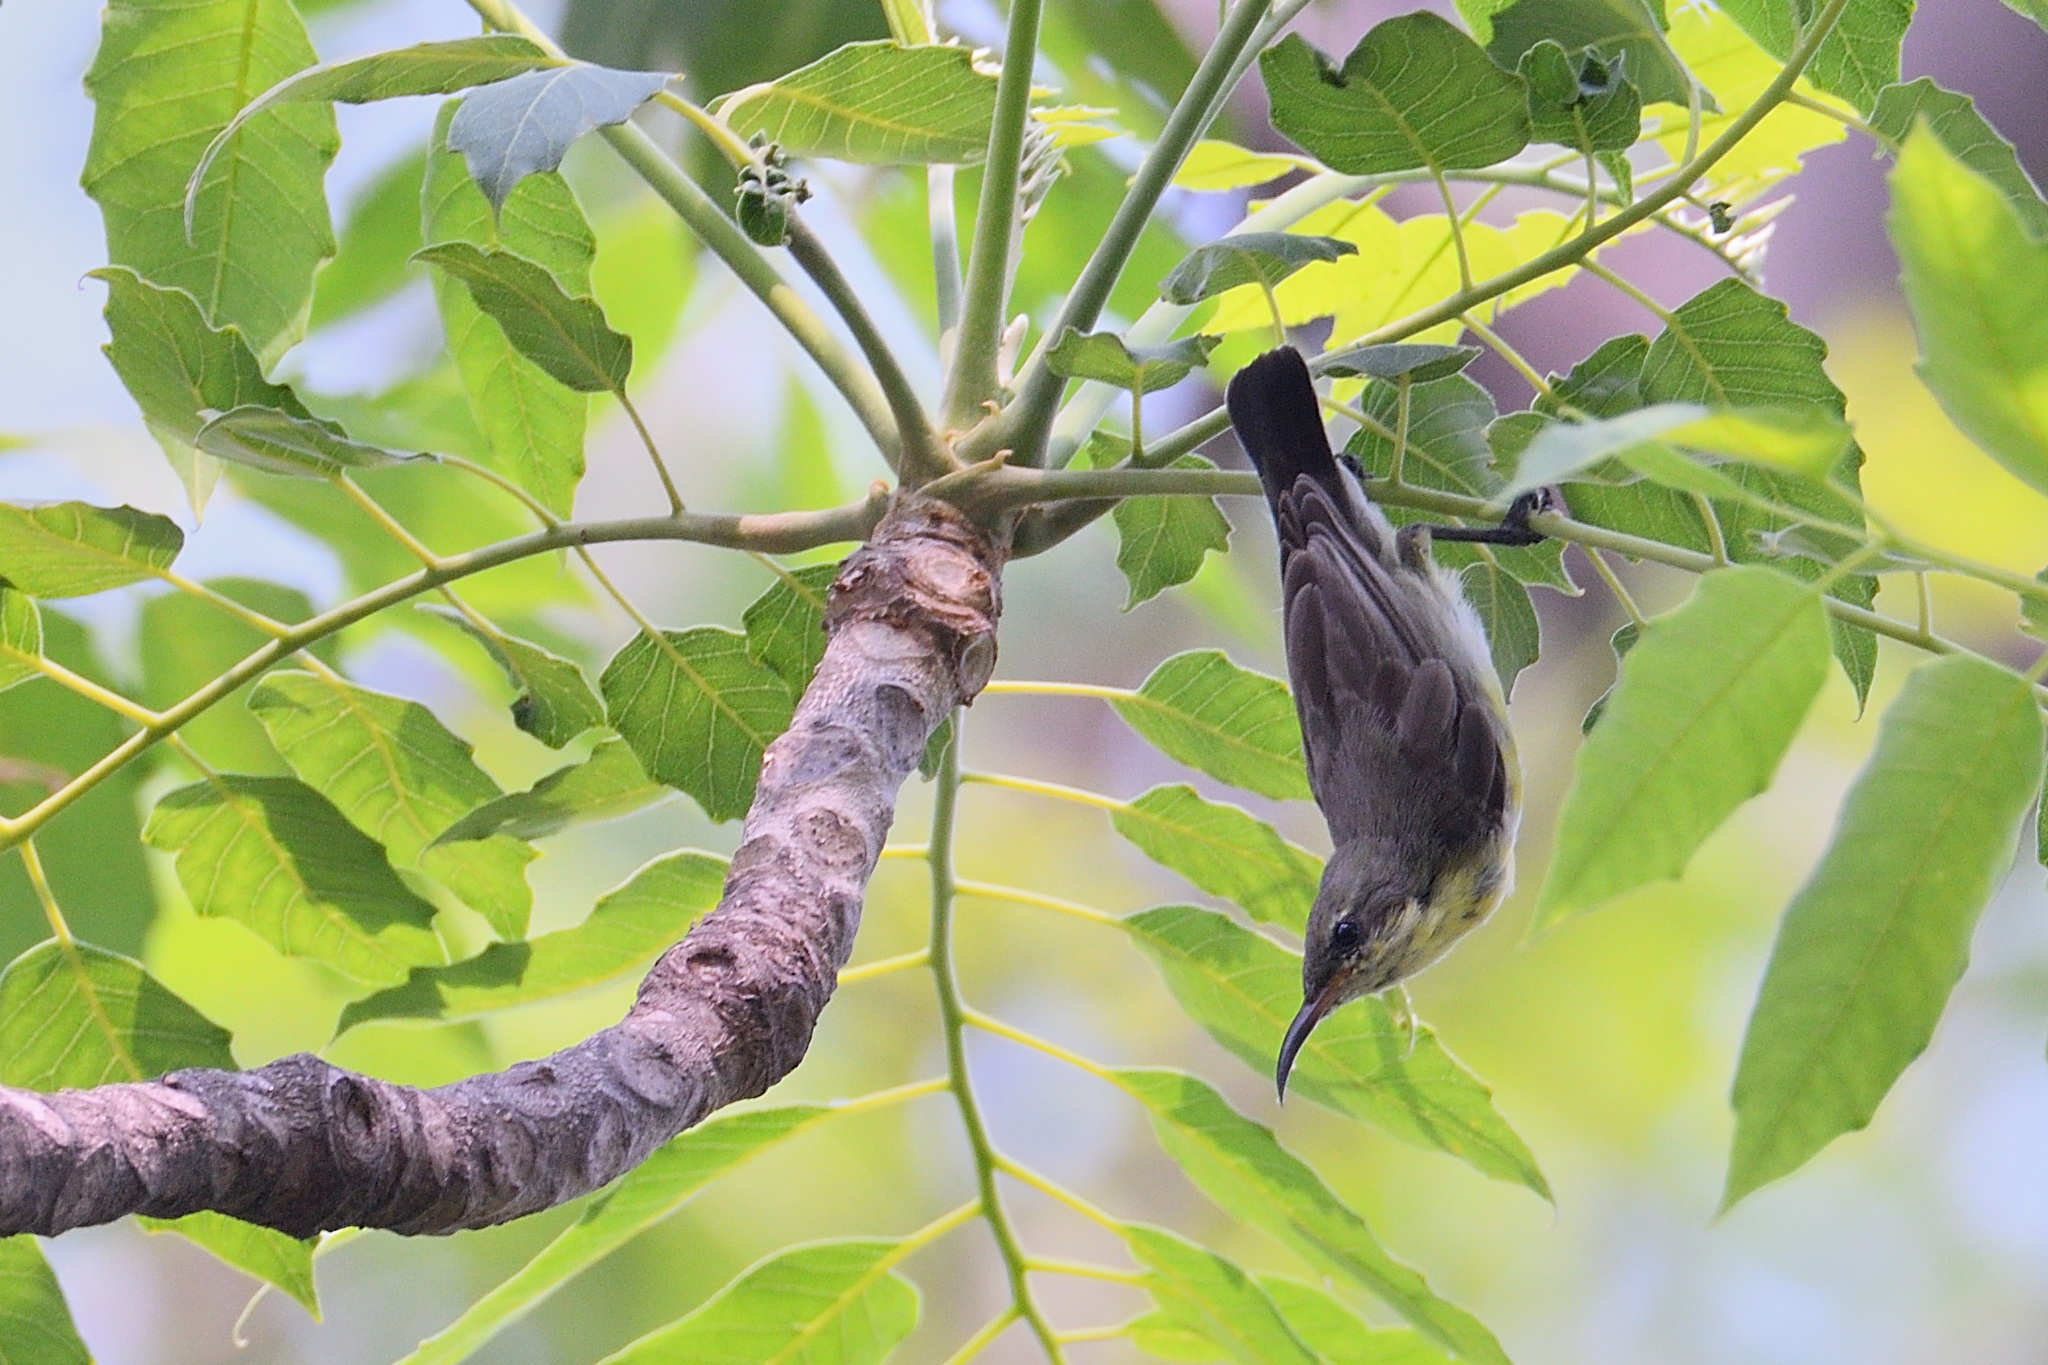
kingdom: Animalia
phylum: Chordata
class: Aves
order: Passeriformes
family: Nectariniidae
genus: Cinnyris
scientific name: Cinnyris asiaticus
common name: Purple sunbird
